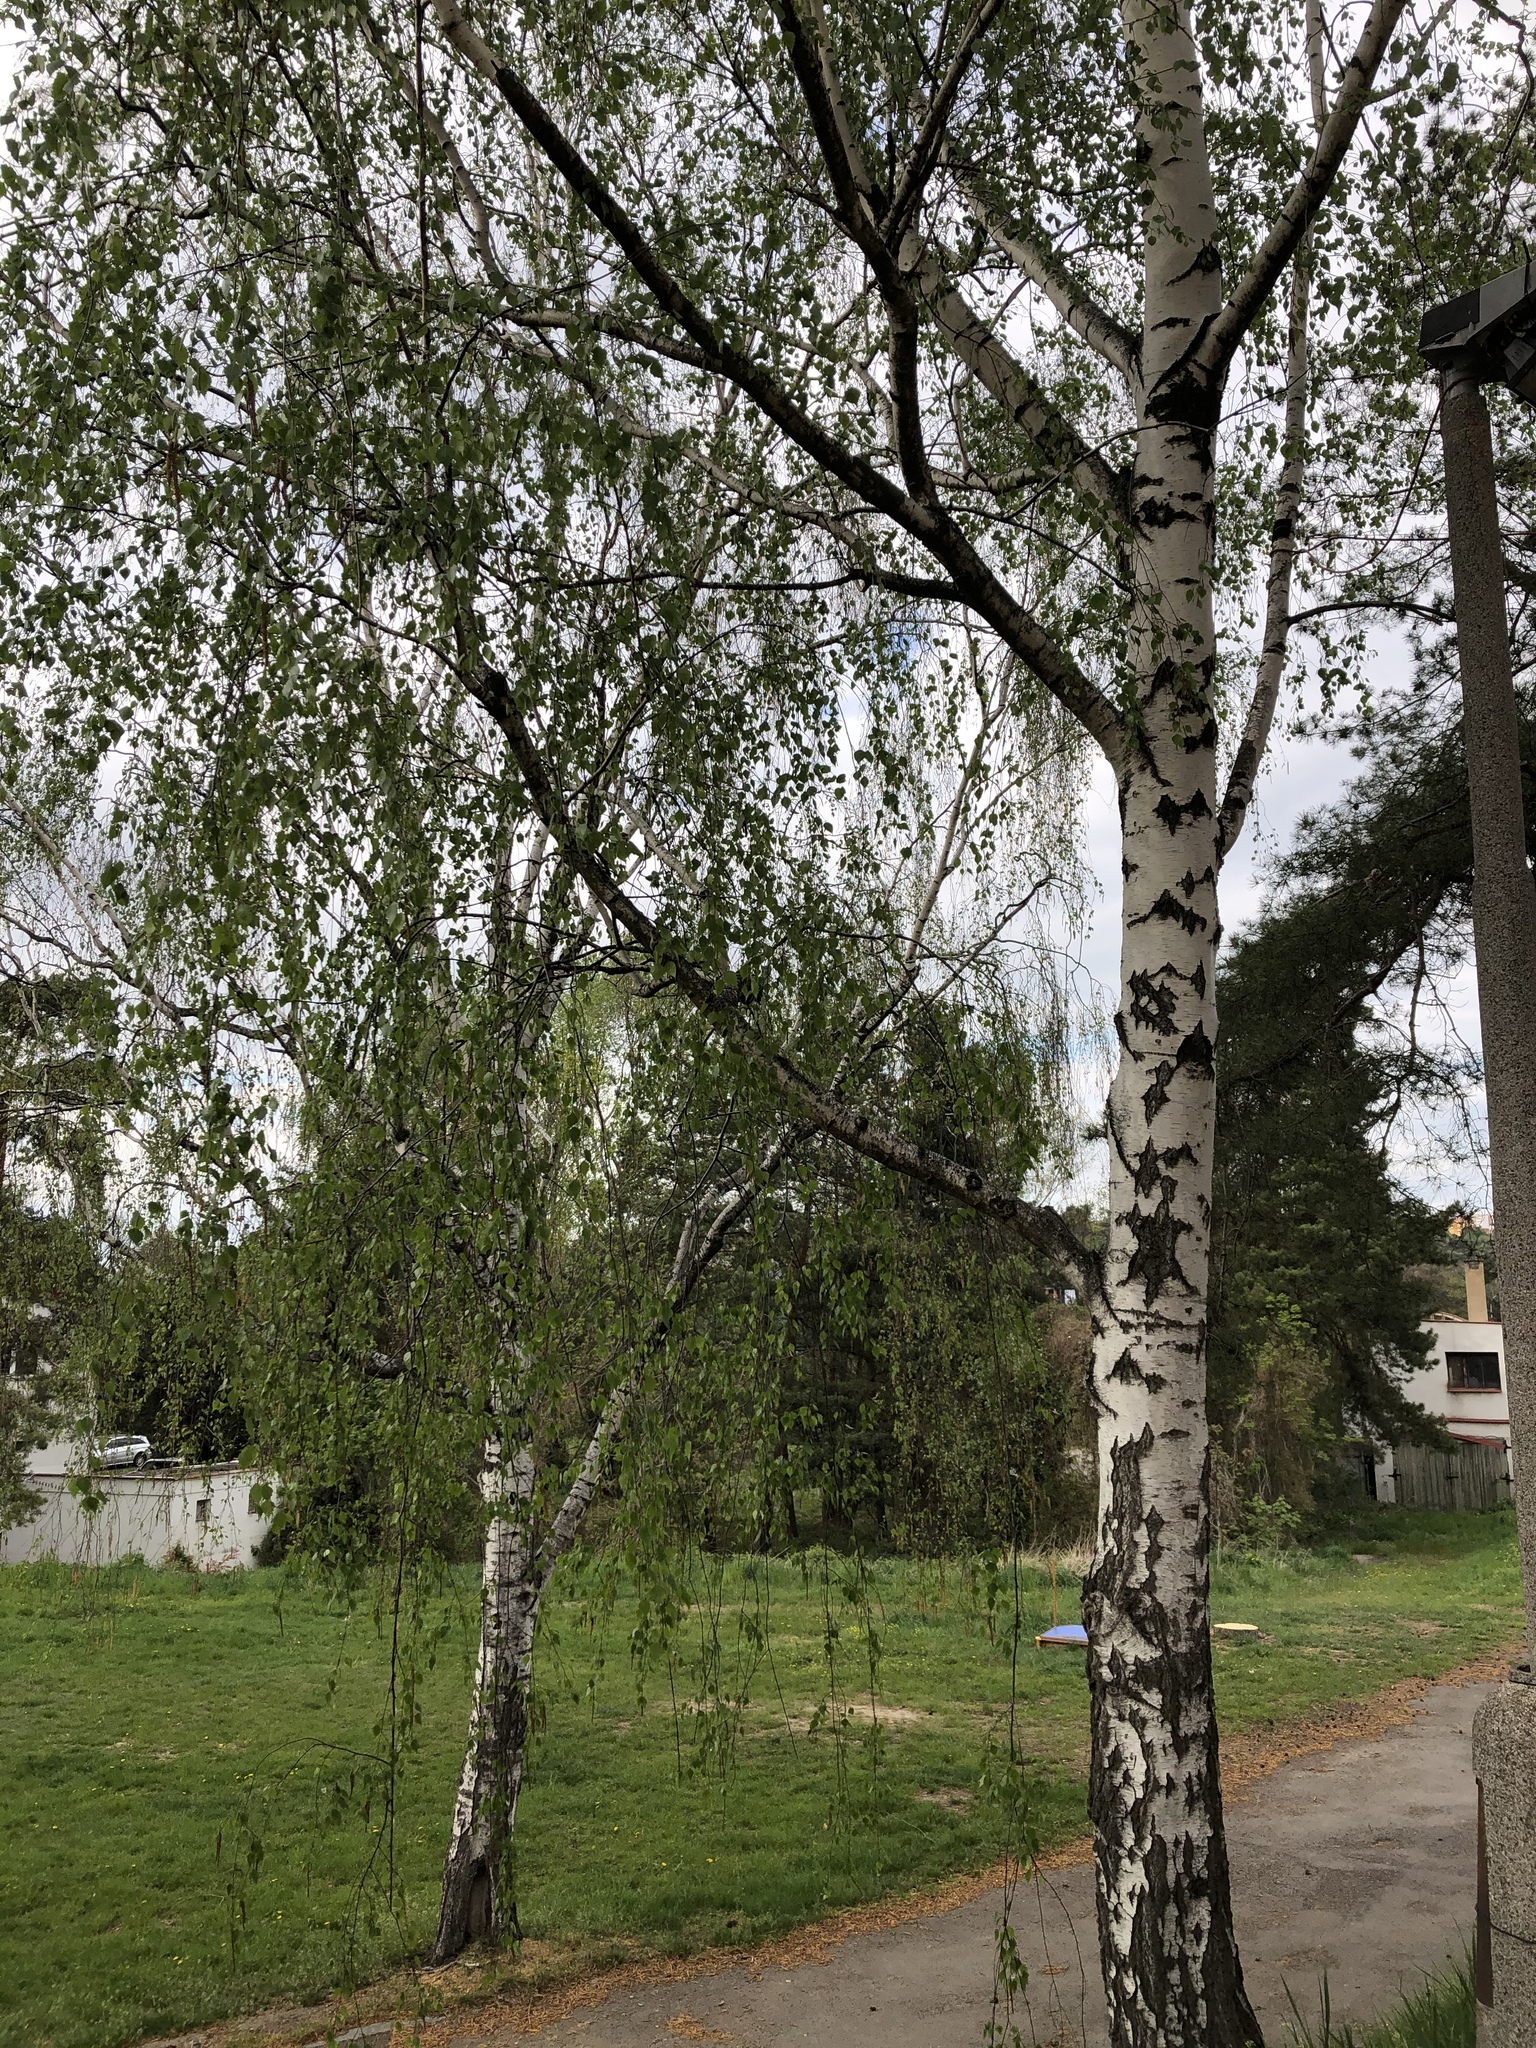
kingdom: Plantae
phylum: Tracheophyta
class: Magnoliopsida
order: Fagales
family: Betulaceae
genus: Betula
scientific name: Betula pendula
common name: Silver birch
